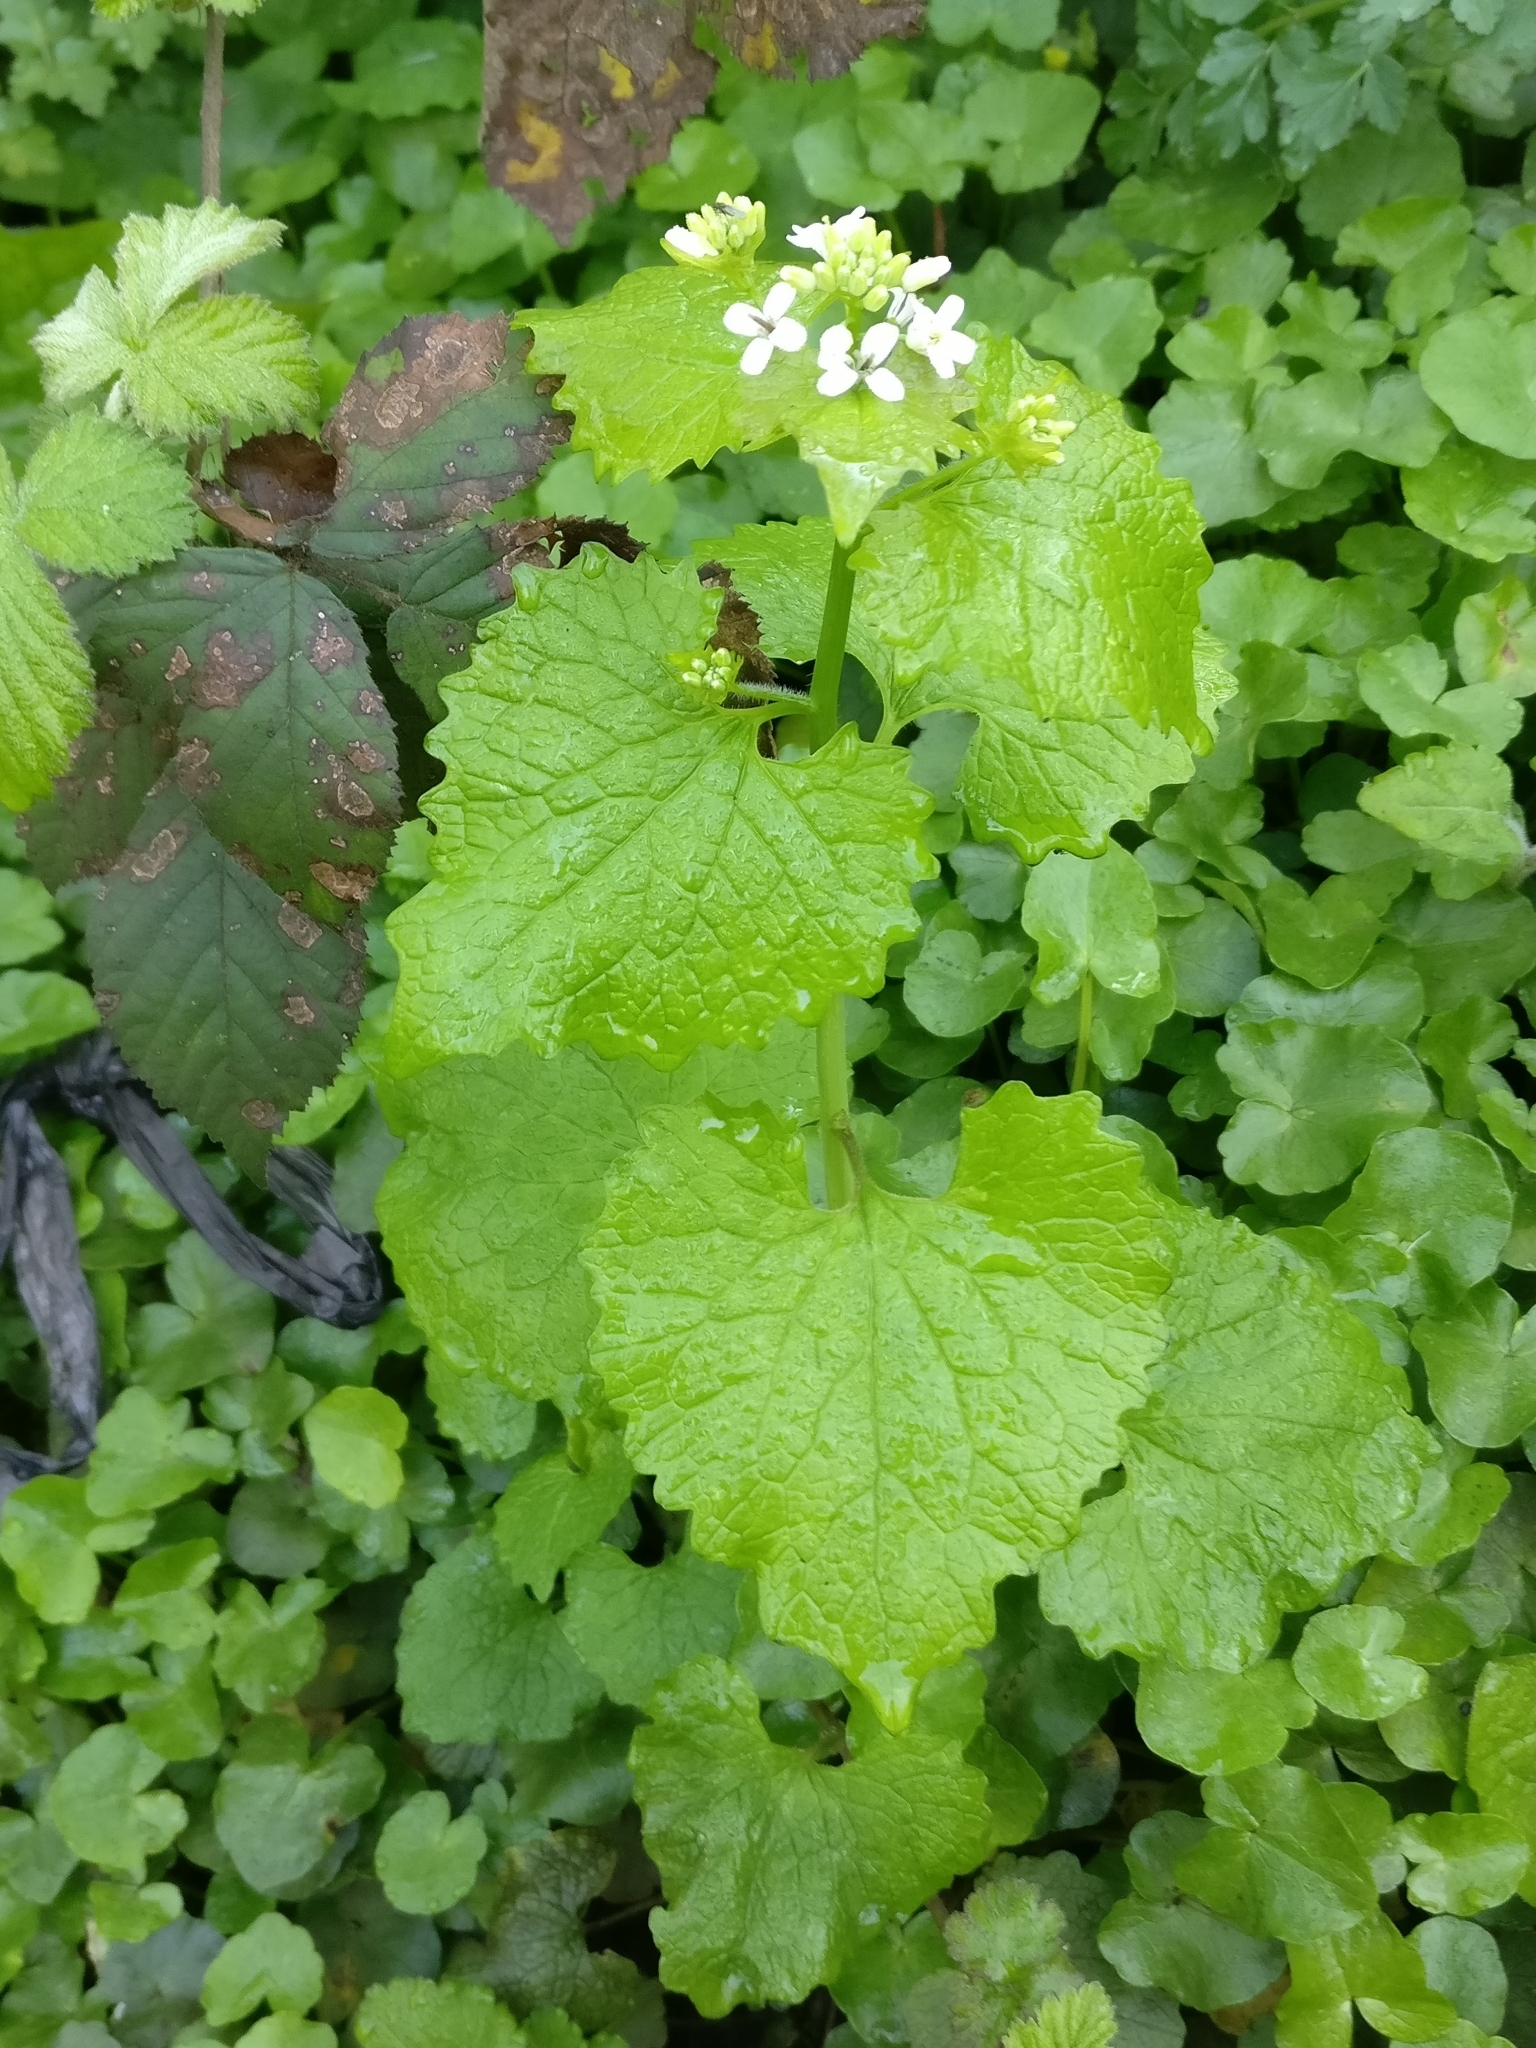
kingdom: Plantae
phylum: Tracheophyta
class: Magnoliopsida
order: Brassicales
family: Brassicaceae
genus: Alliaria
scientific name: Alliaria petiolata
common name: Garlic mustard
